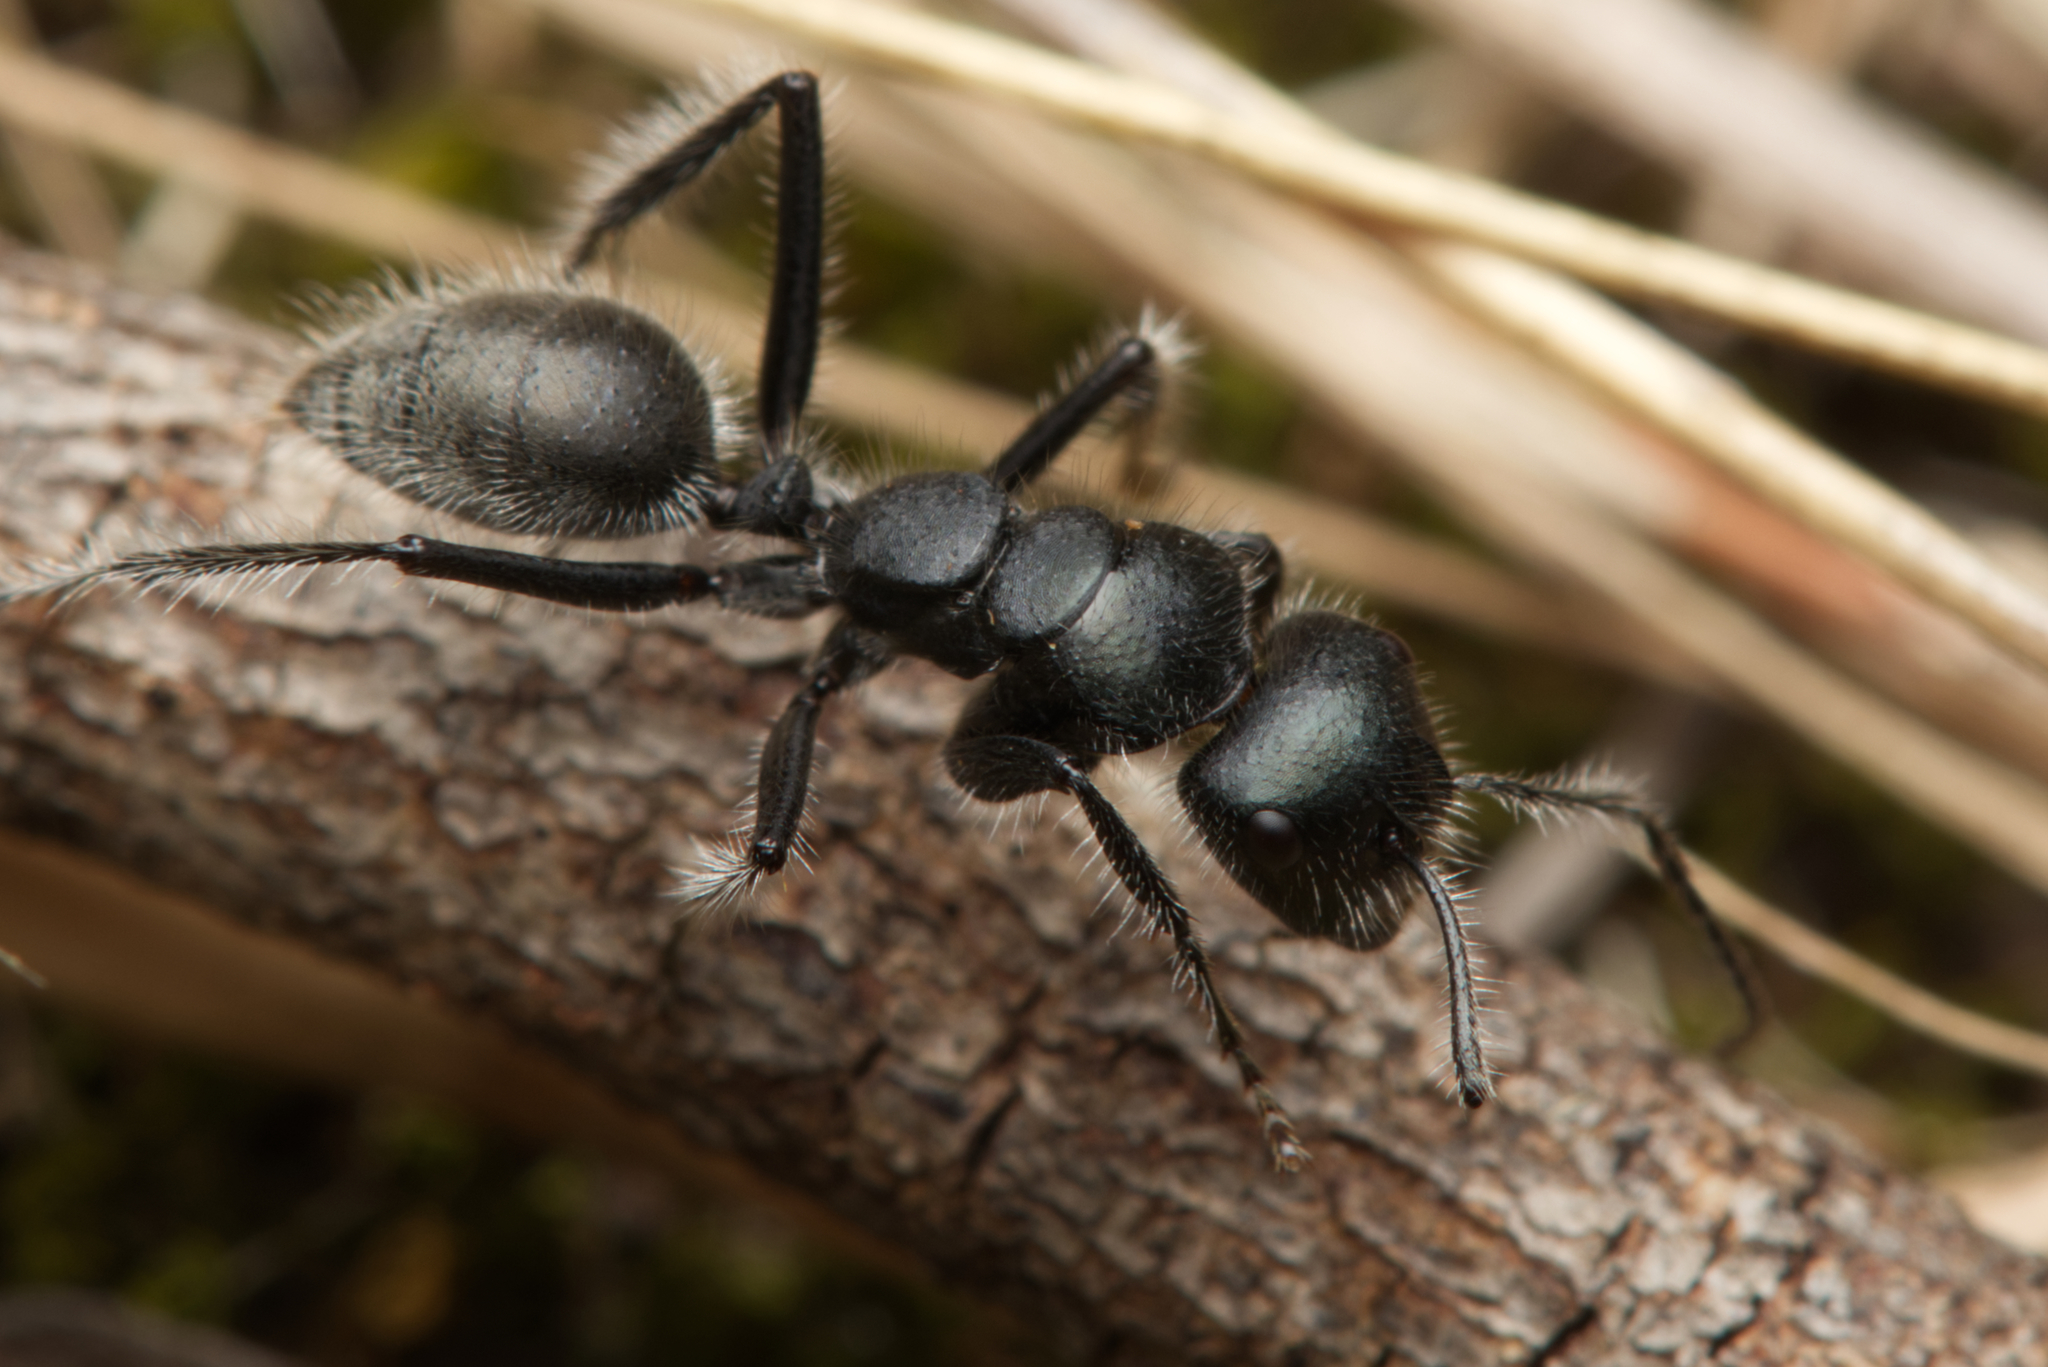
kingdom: Animalia
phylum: Arthropoda
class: Insecta
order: Hymenoptera
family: Formicidae
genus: Calomyrmex
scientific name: Calomyrmex albopilosus
